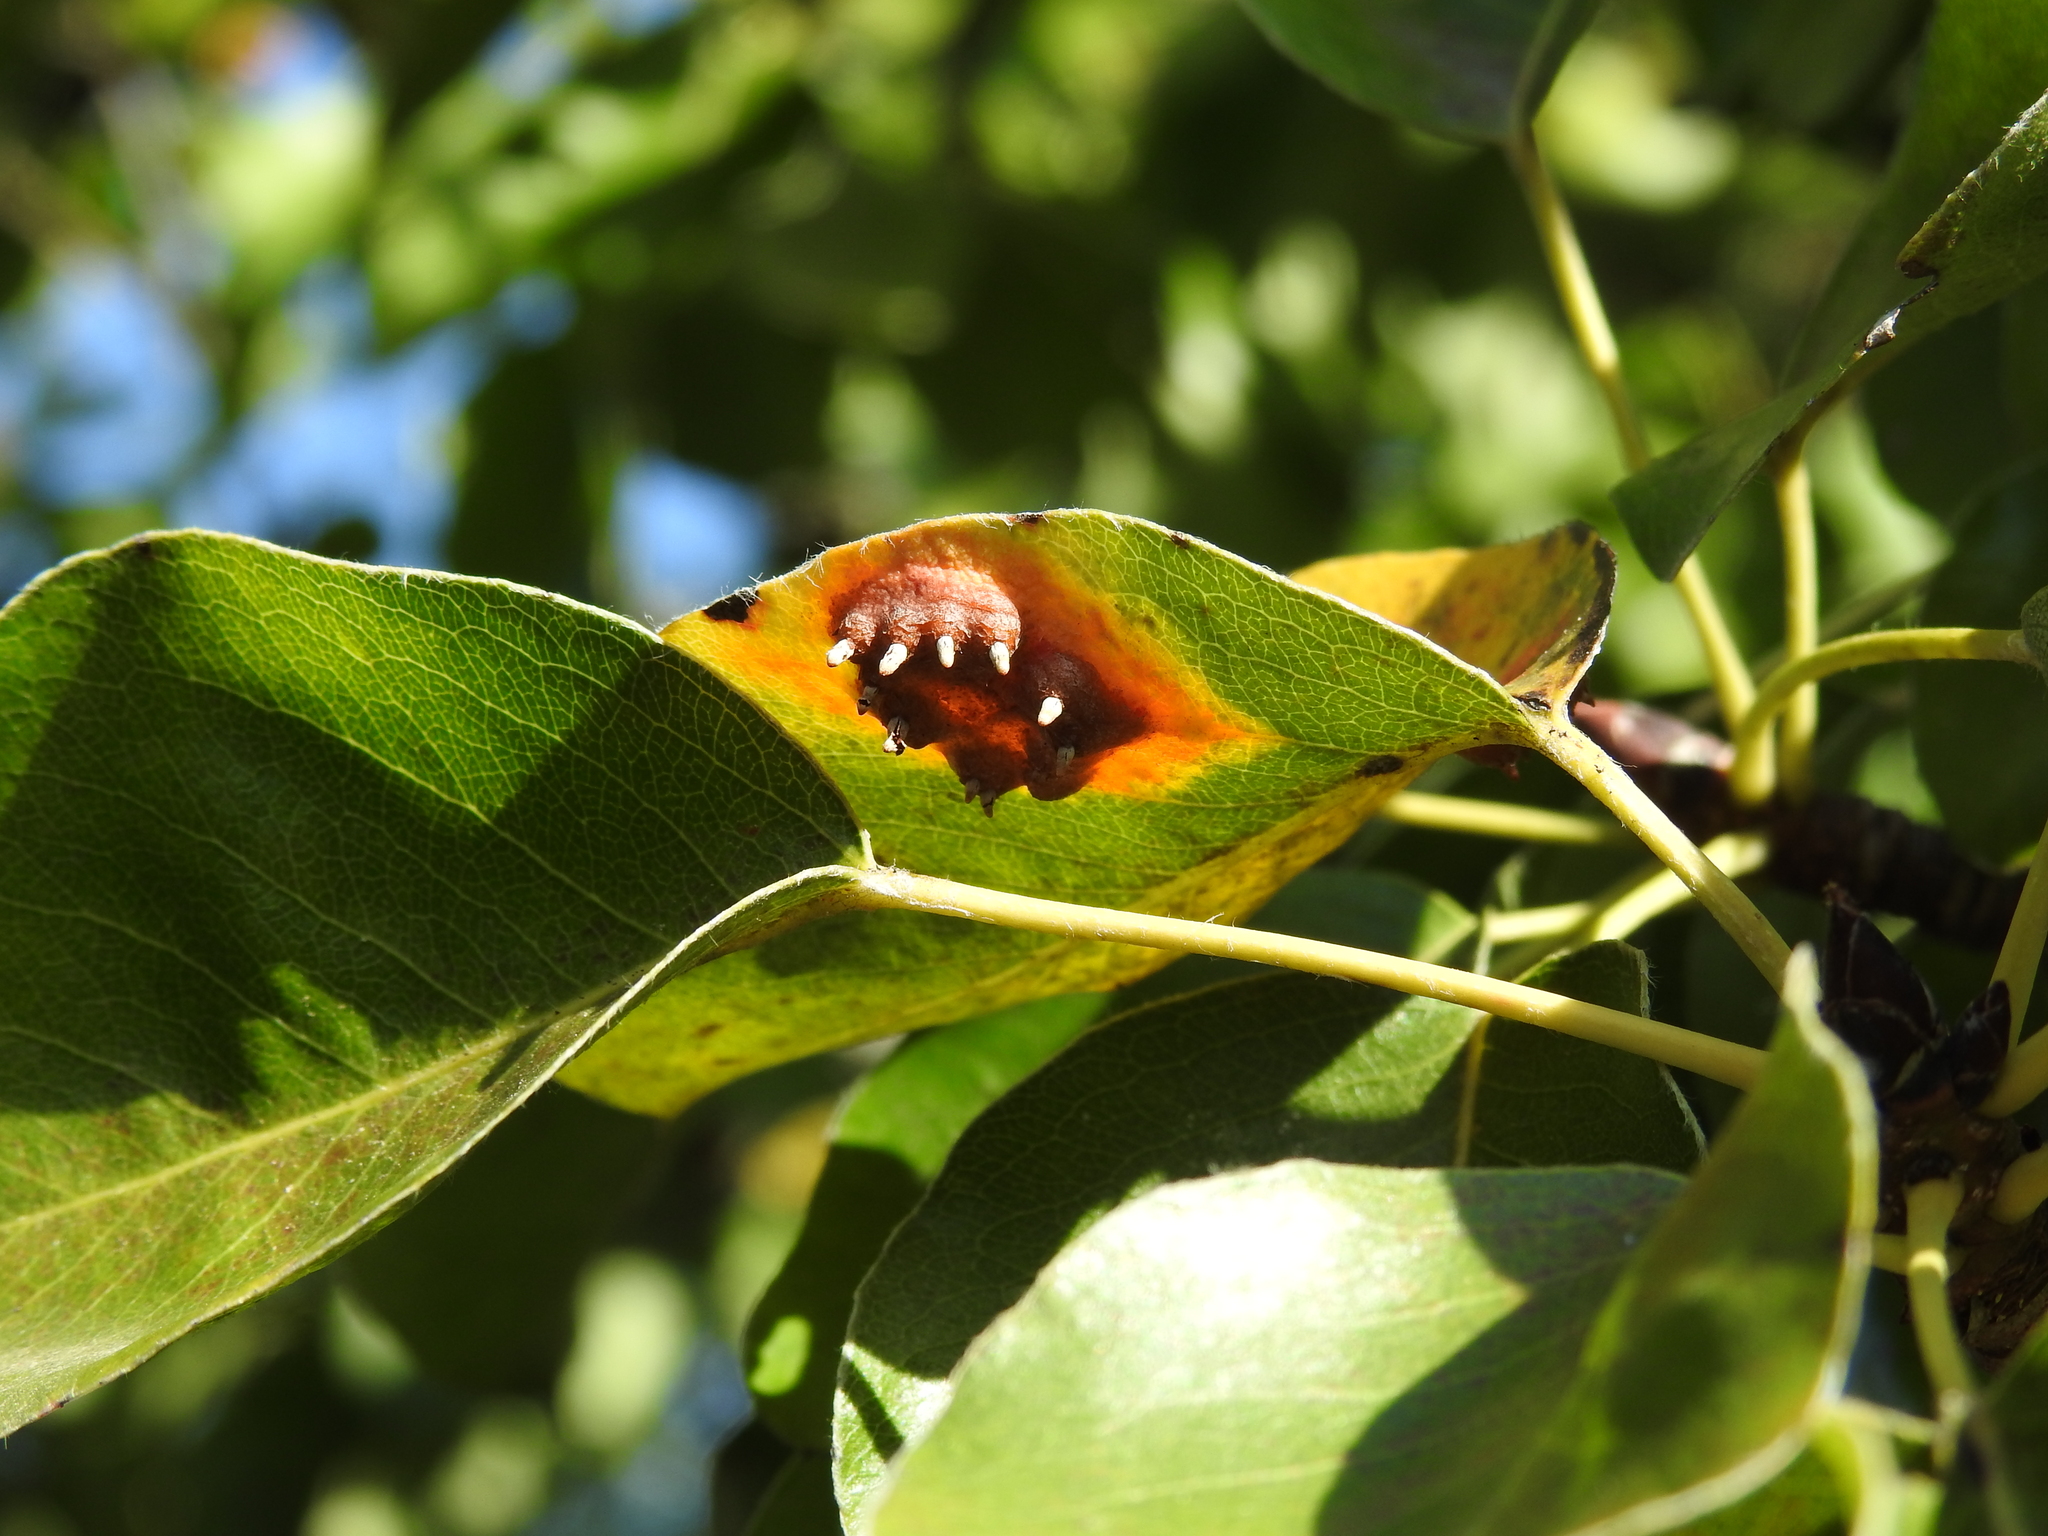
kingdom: Fungi
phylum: Basidiomycota
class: Pucciniomycetes
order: Pucciniales
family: Gymnosporangiaceae
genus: Gymnosporangium
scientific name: Gymnosporangium sabinae
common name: Pear trellis rust fungus
